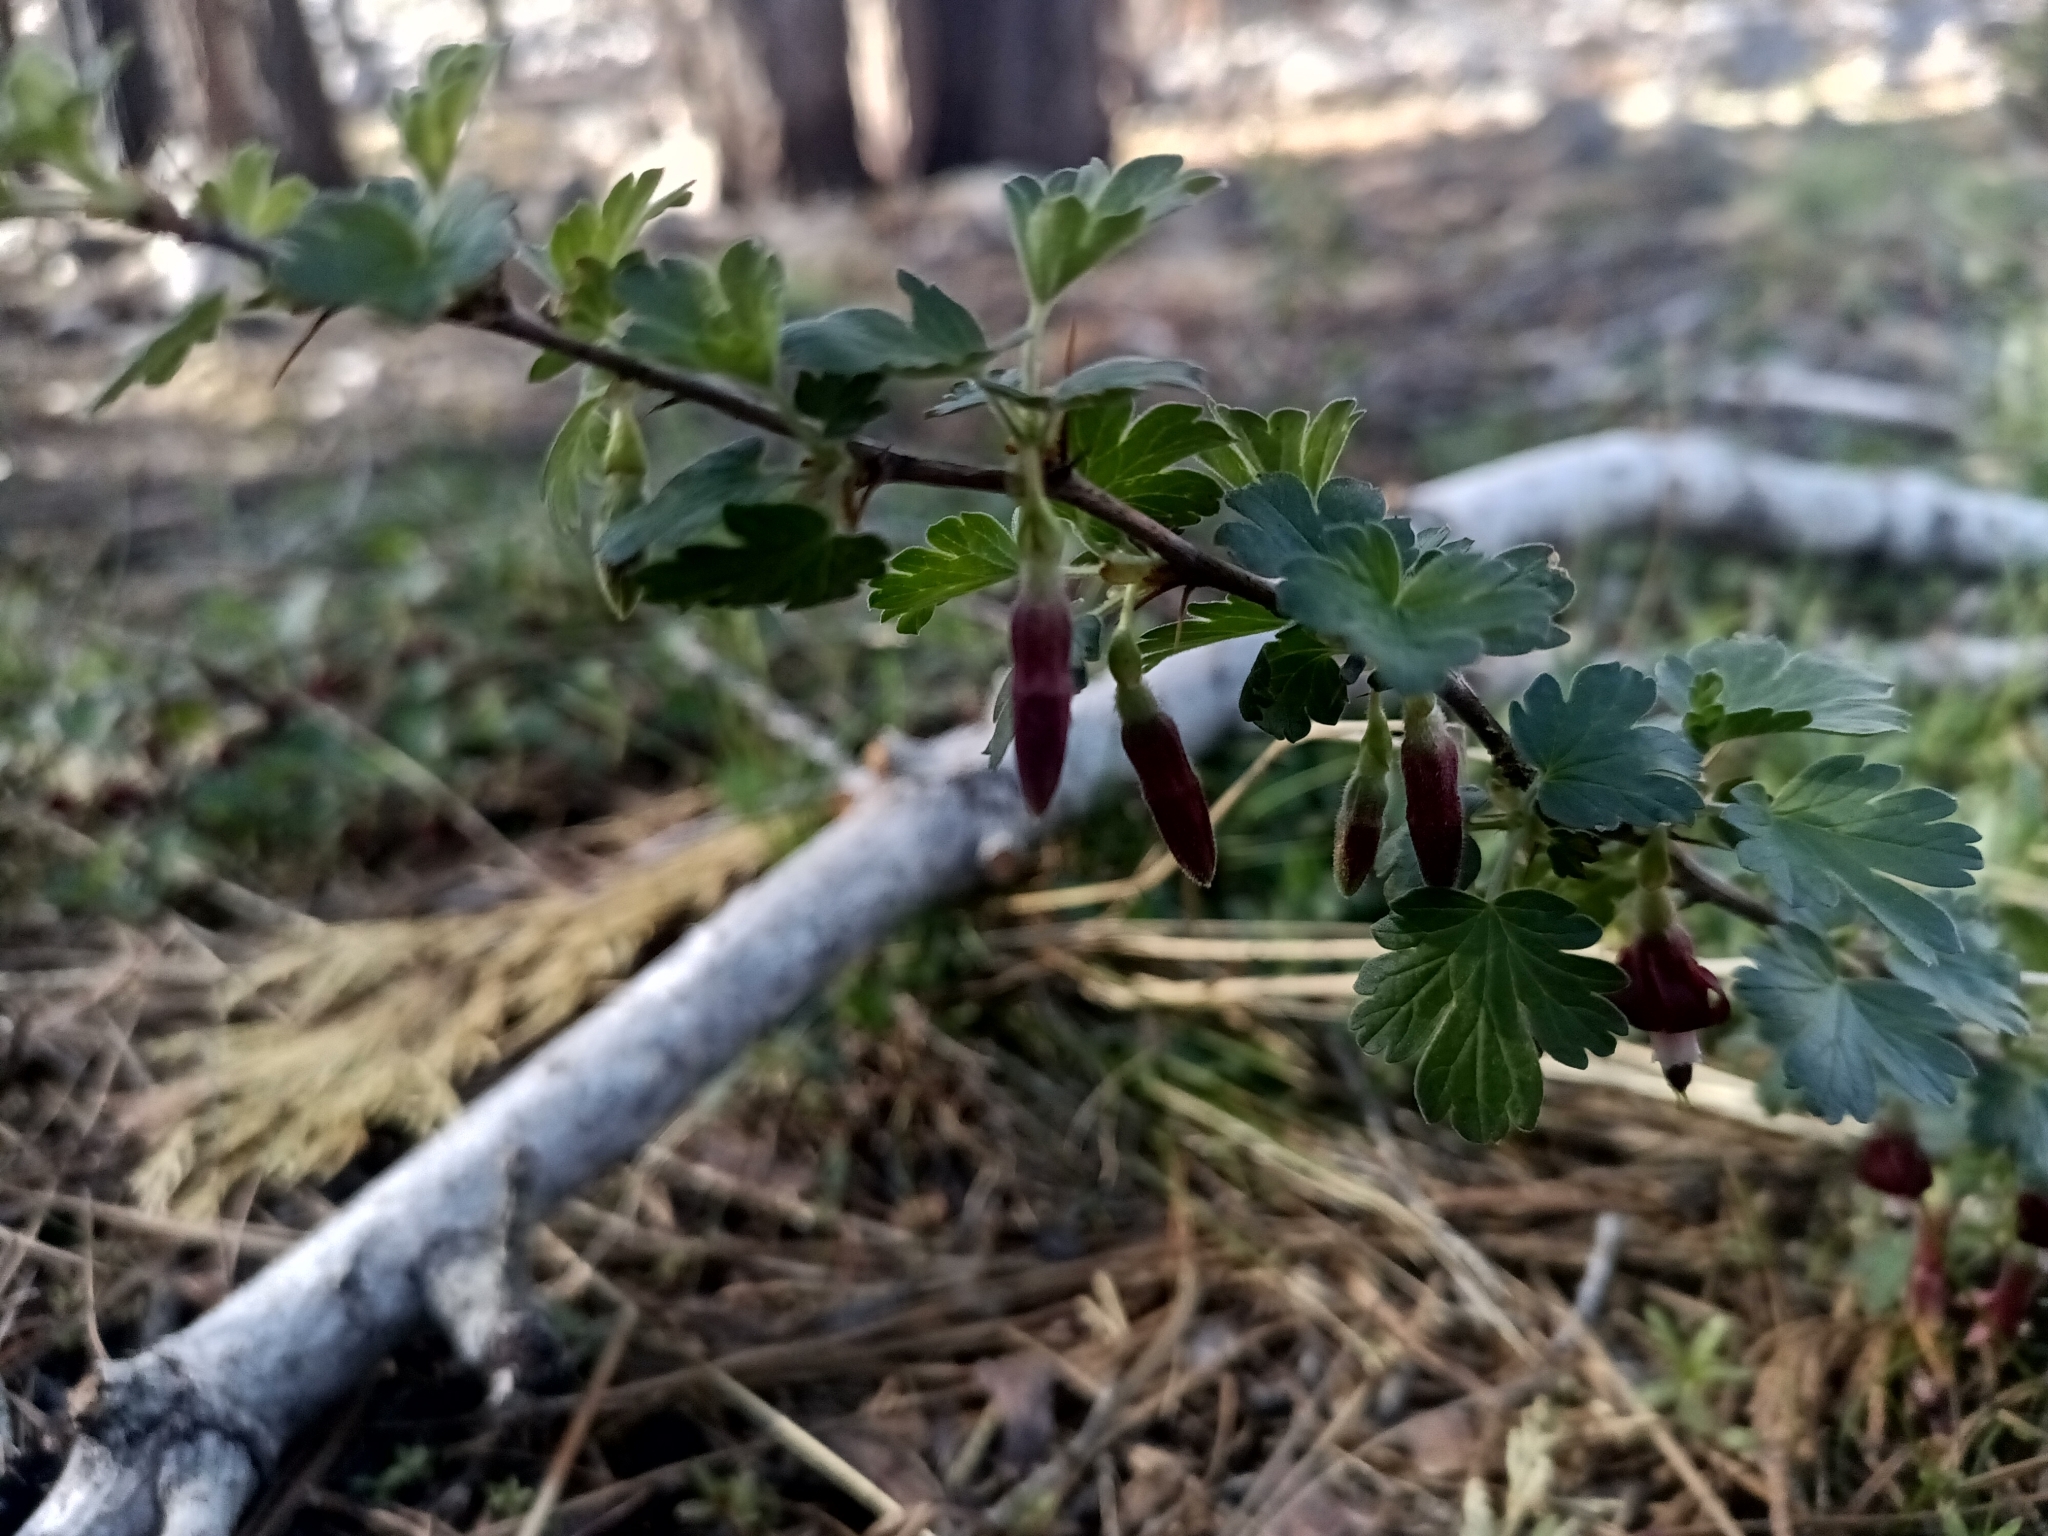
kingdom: Plantae
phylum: Tracheophyta
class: Magnoliopsida
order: Saxifragales
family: Grossulariaceae
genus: Ribes
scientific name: Ribes roezlii
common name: Sierra gooseberry
